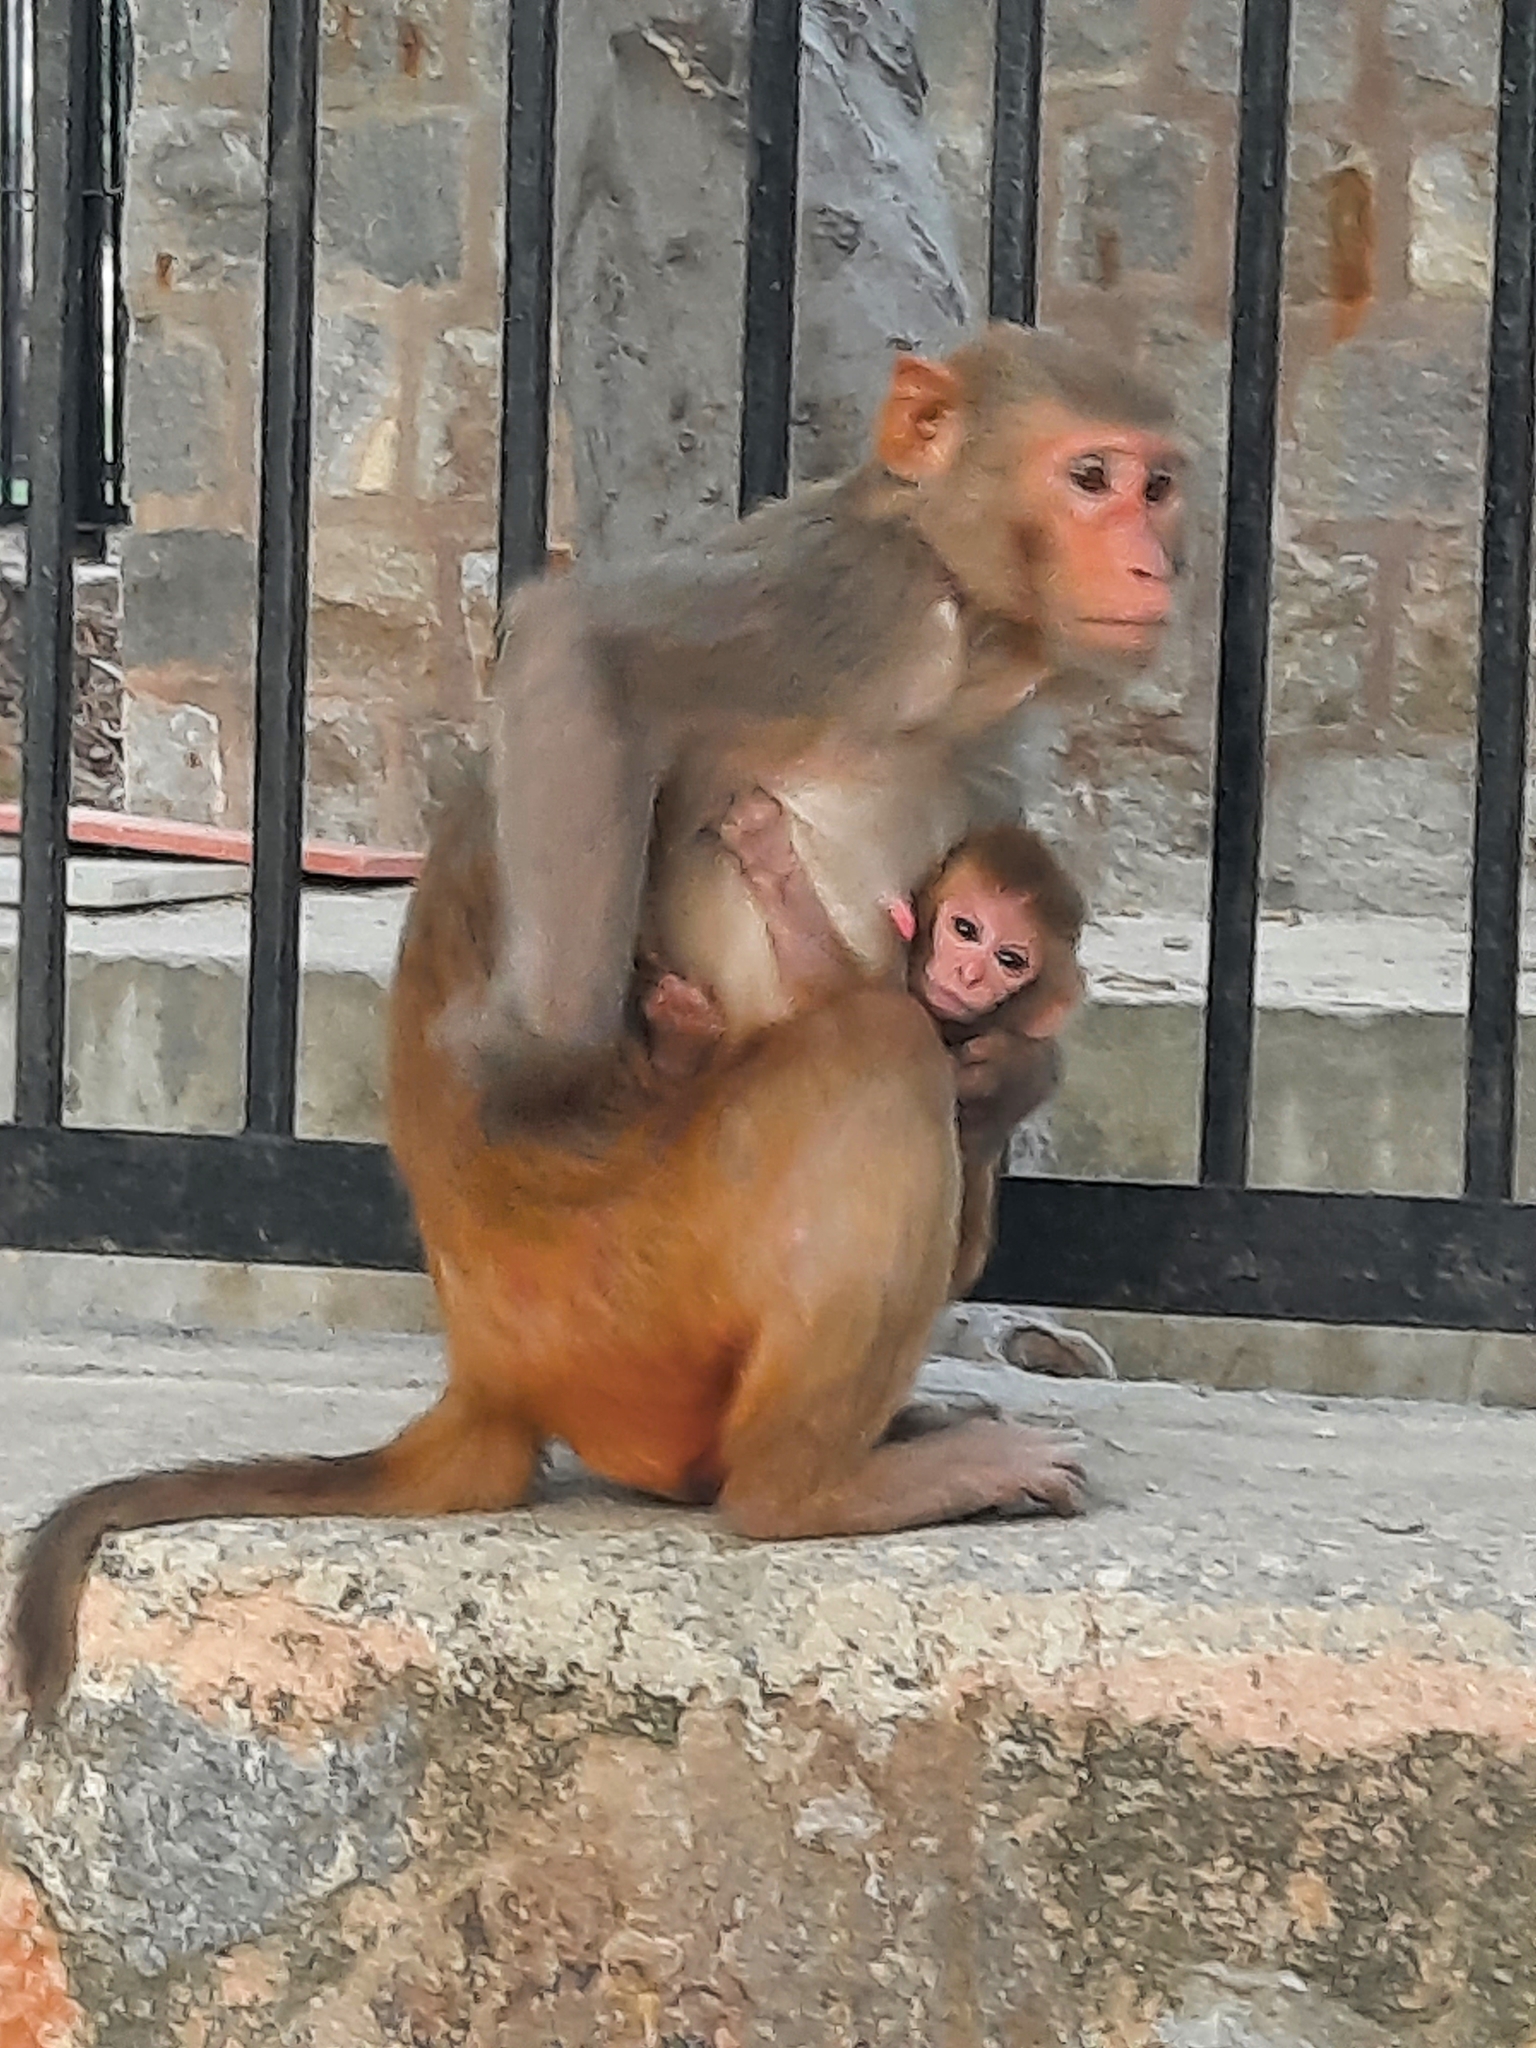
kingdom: Animalia
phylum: Chordata
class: Mammalia
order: Primates
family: Cercopithecidae
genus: Macaca
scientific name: Macaca mulatta
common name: Rhesus monkey
